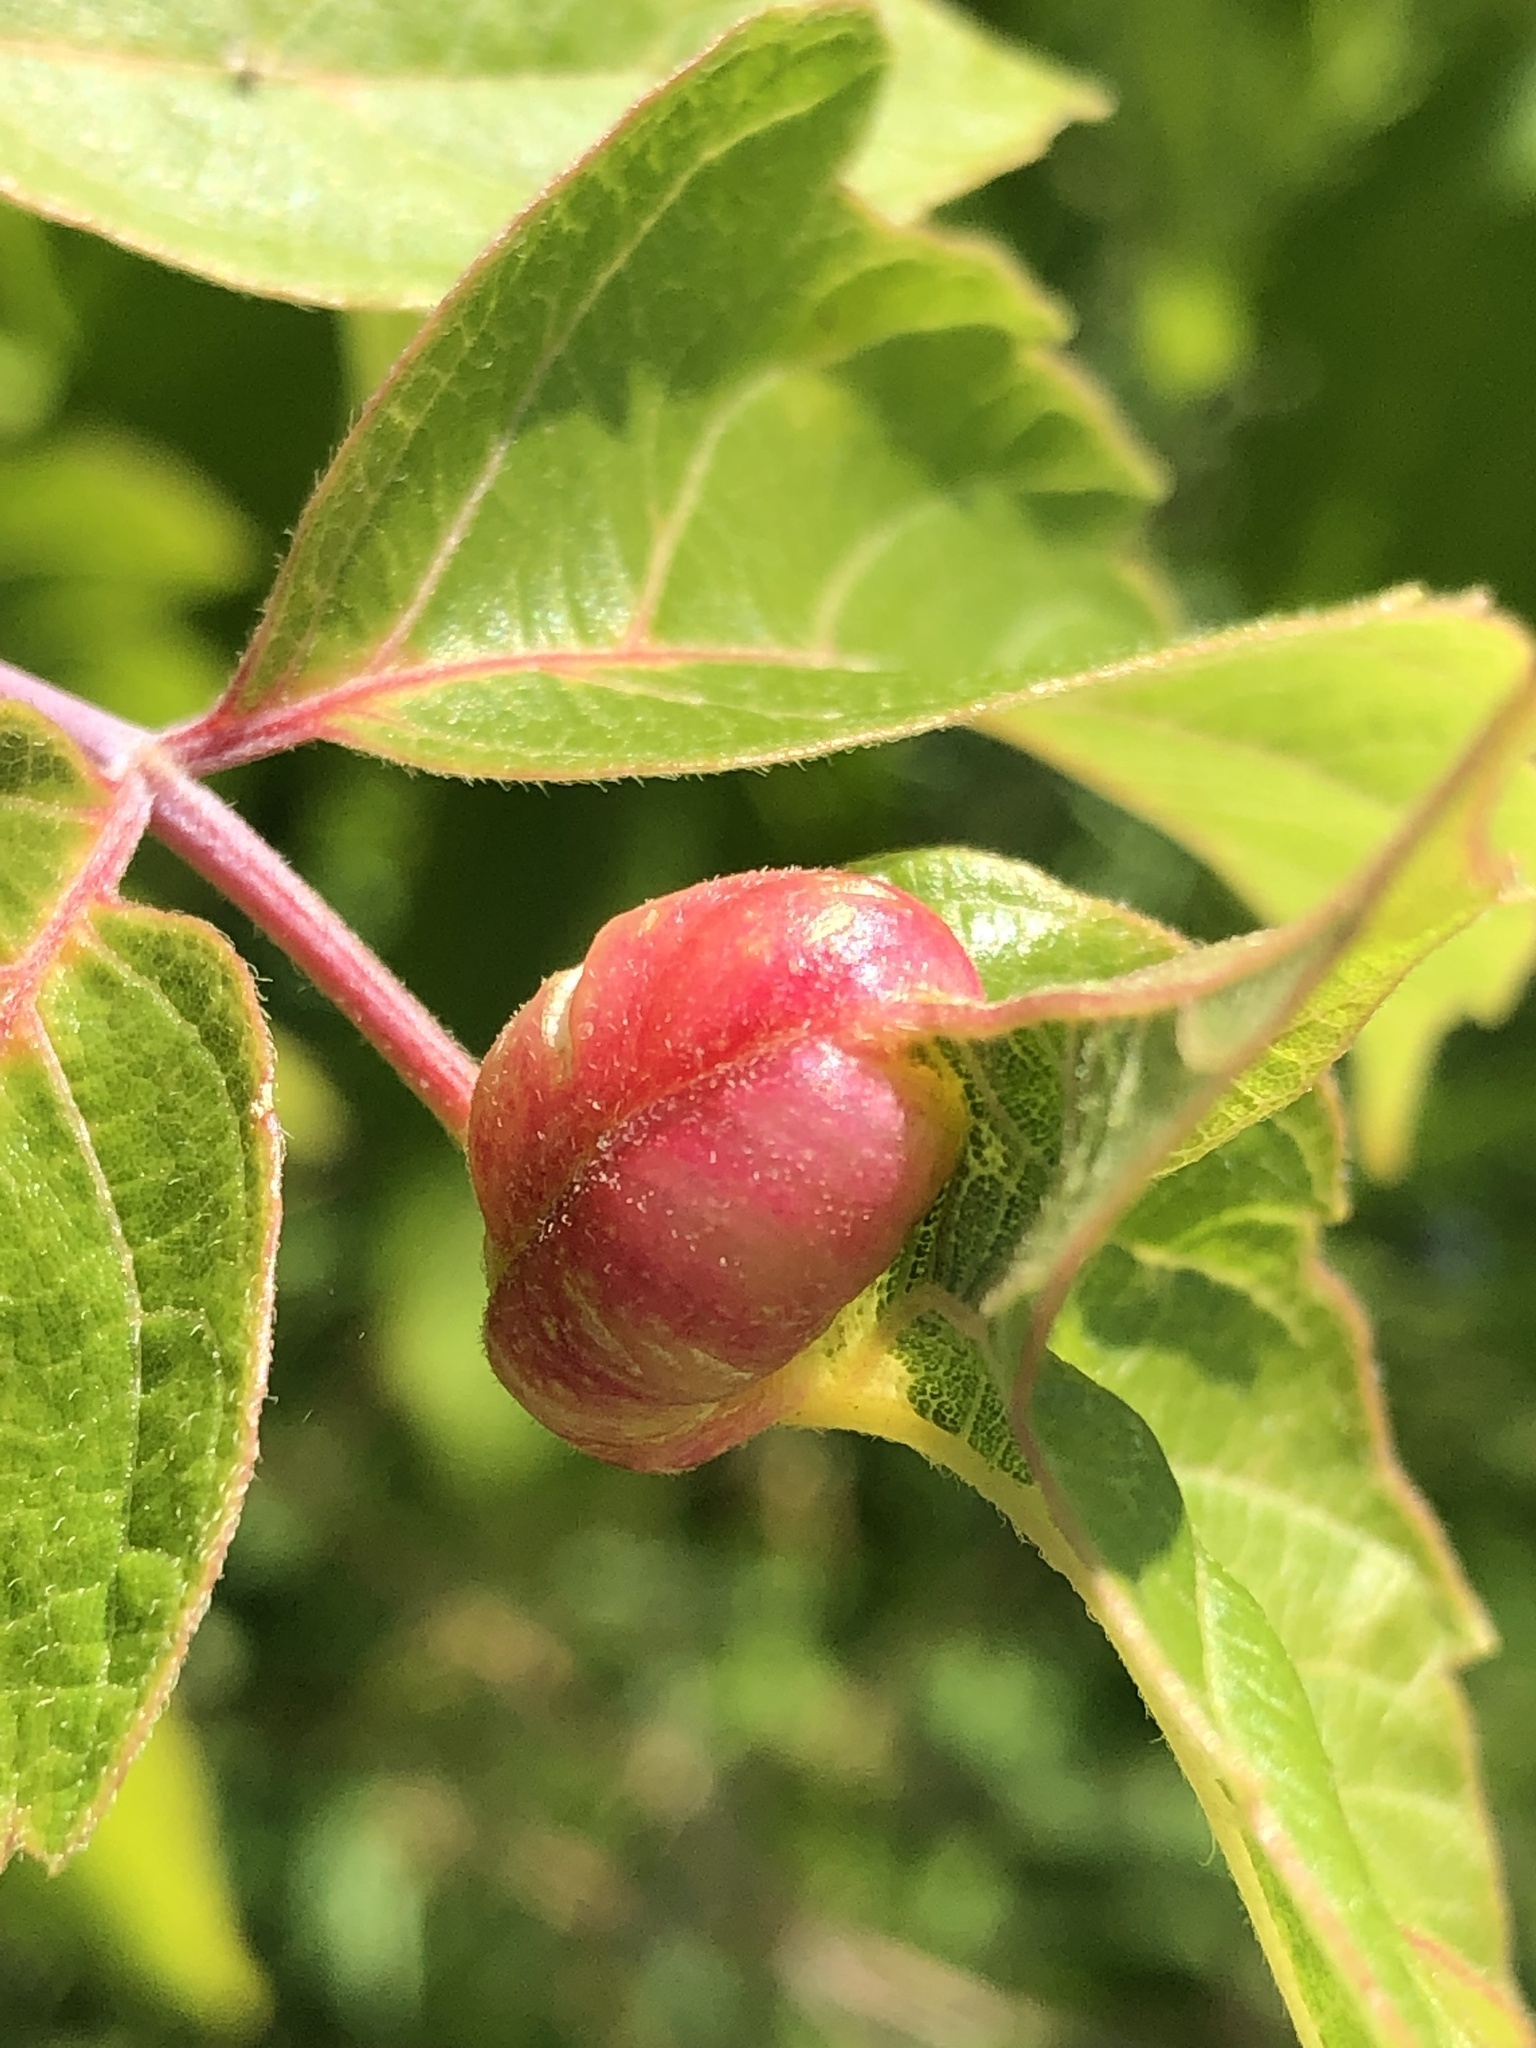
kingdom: Animalia
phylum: Arthropoda
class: Insecta
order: Diptera
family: Cecidomyiidae
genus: Contarinia
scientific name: Contarinia negundinis
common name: Boxelder budgall midge
